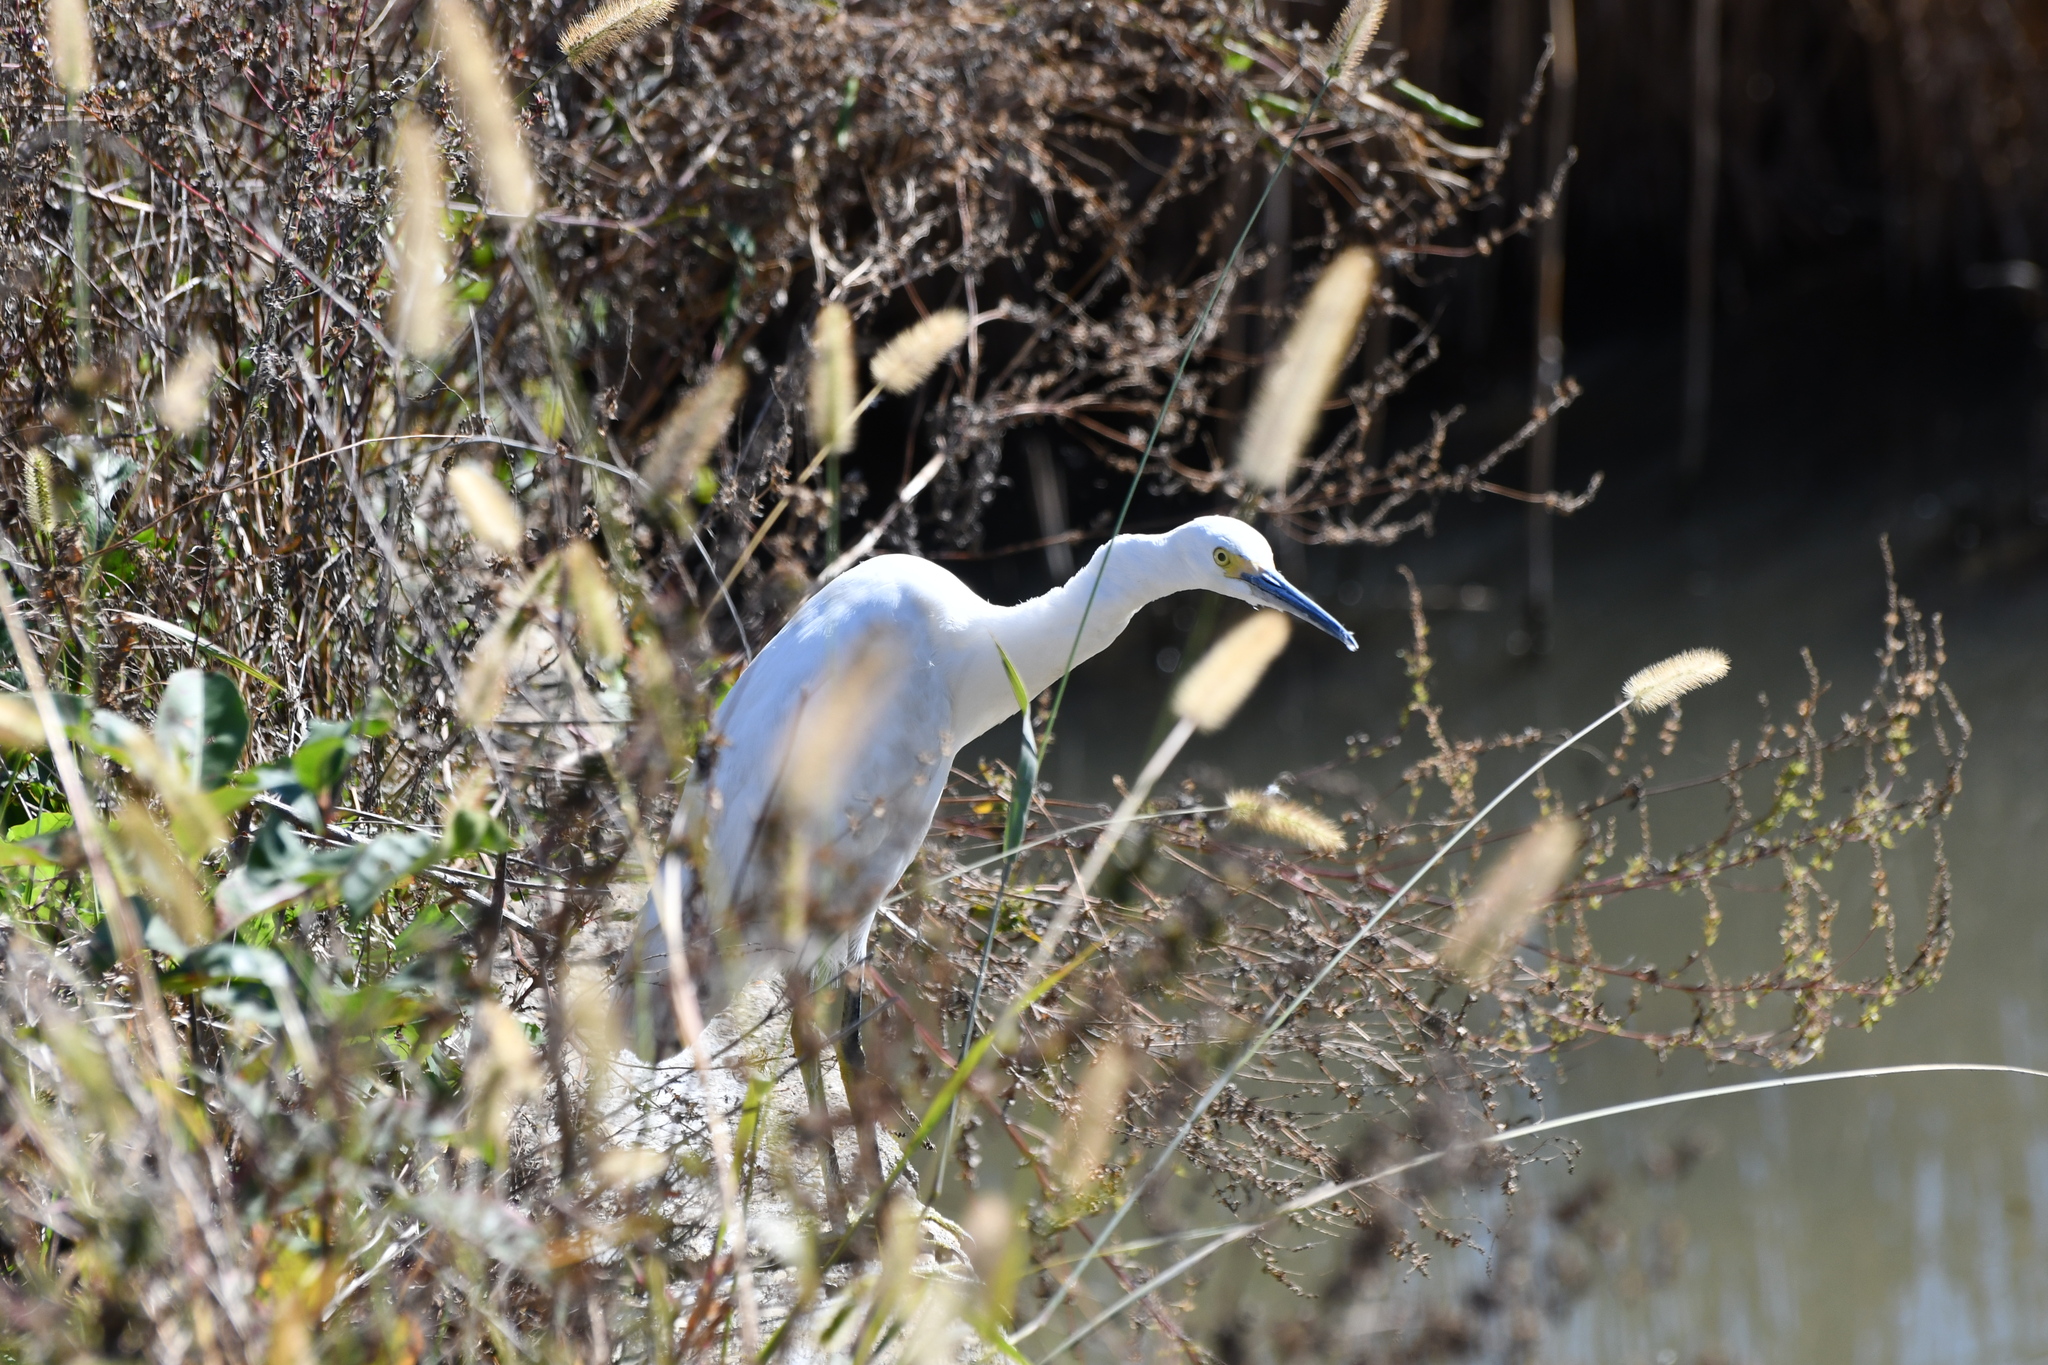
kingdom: Animalia
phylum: Chordata
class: Aves
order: Pelecaniformes
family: Ardeidae
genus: Egretta
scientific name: Egretta thula
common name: Snowy egret
